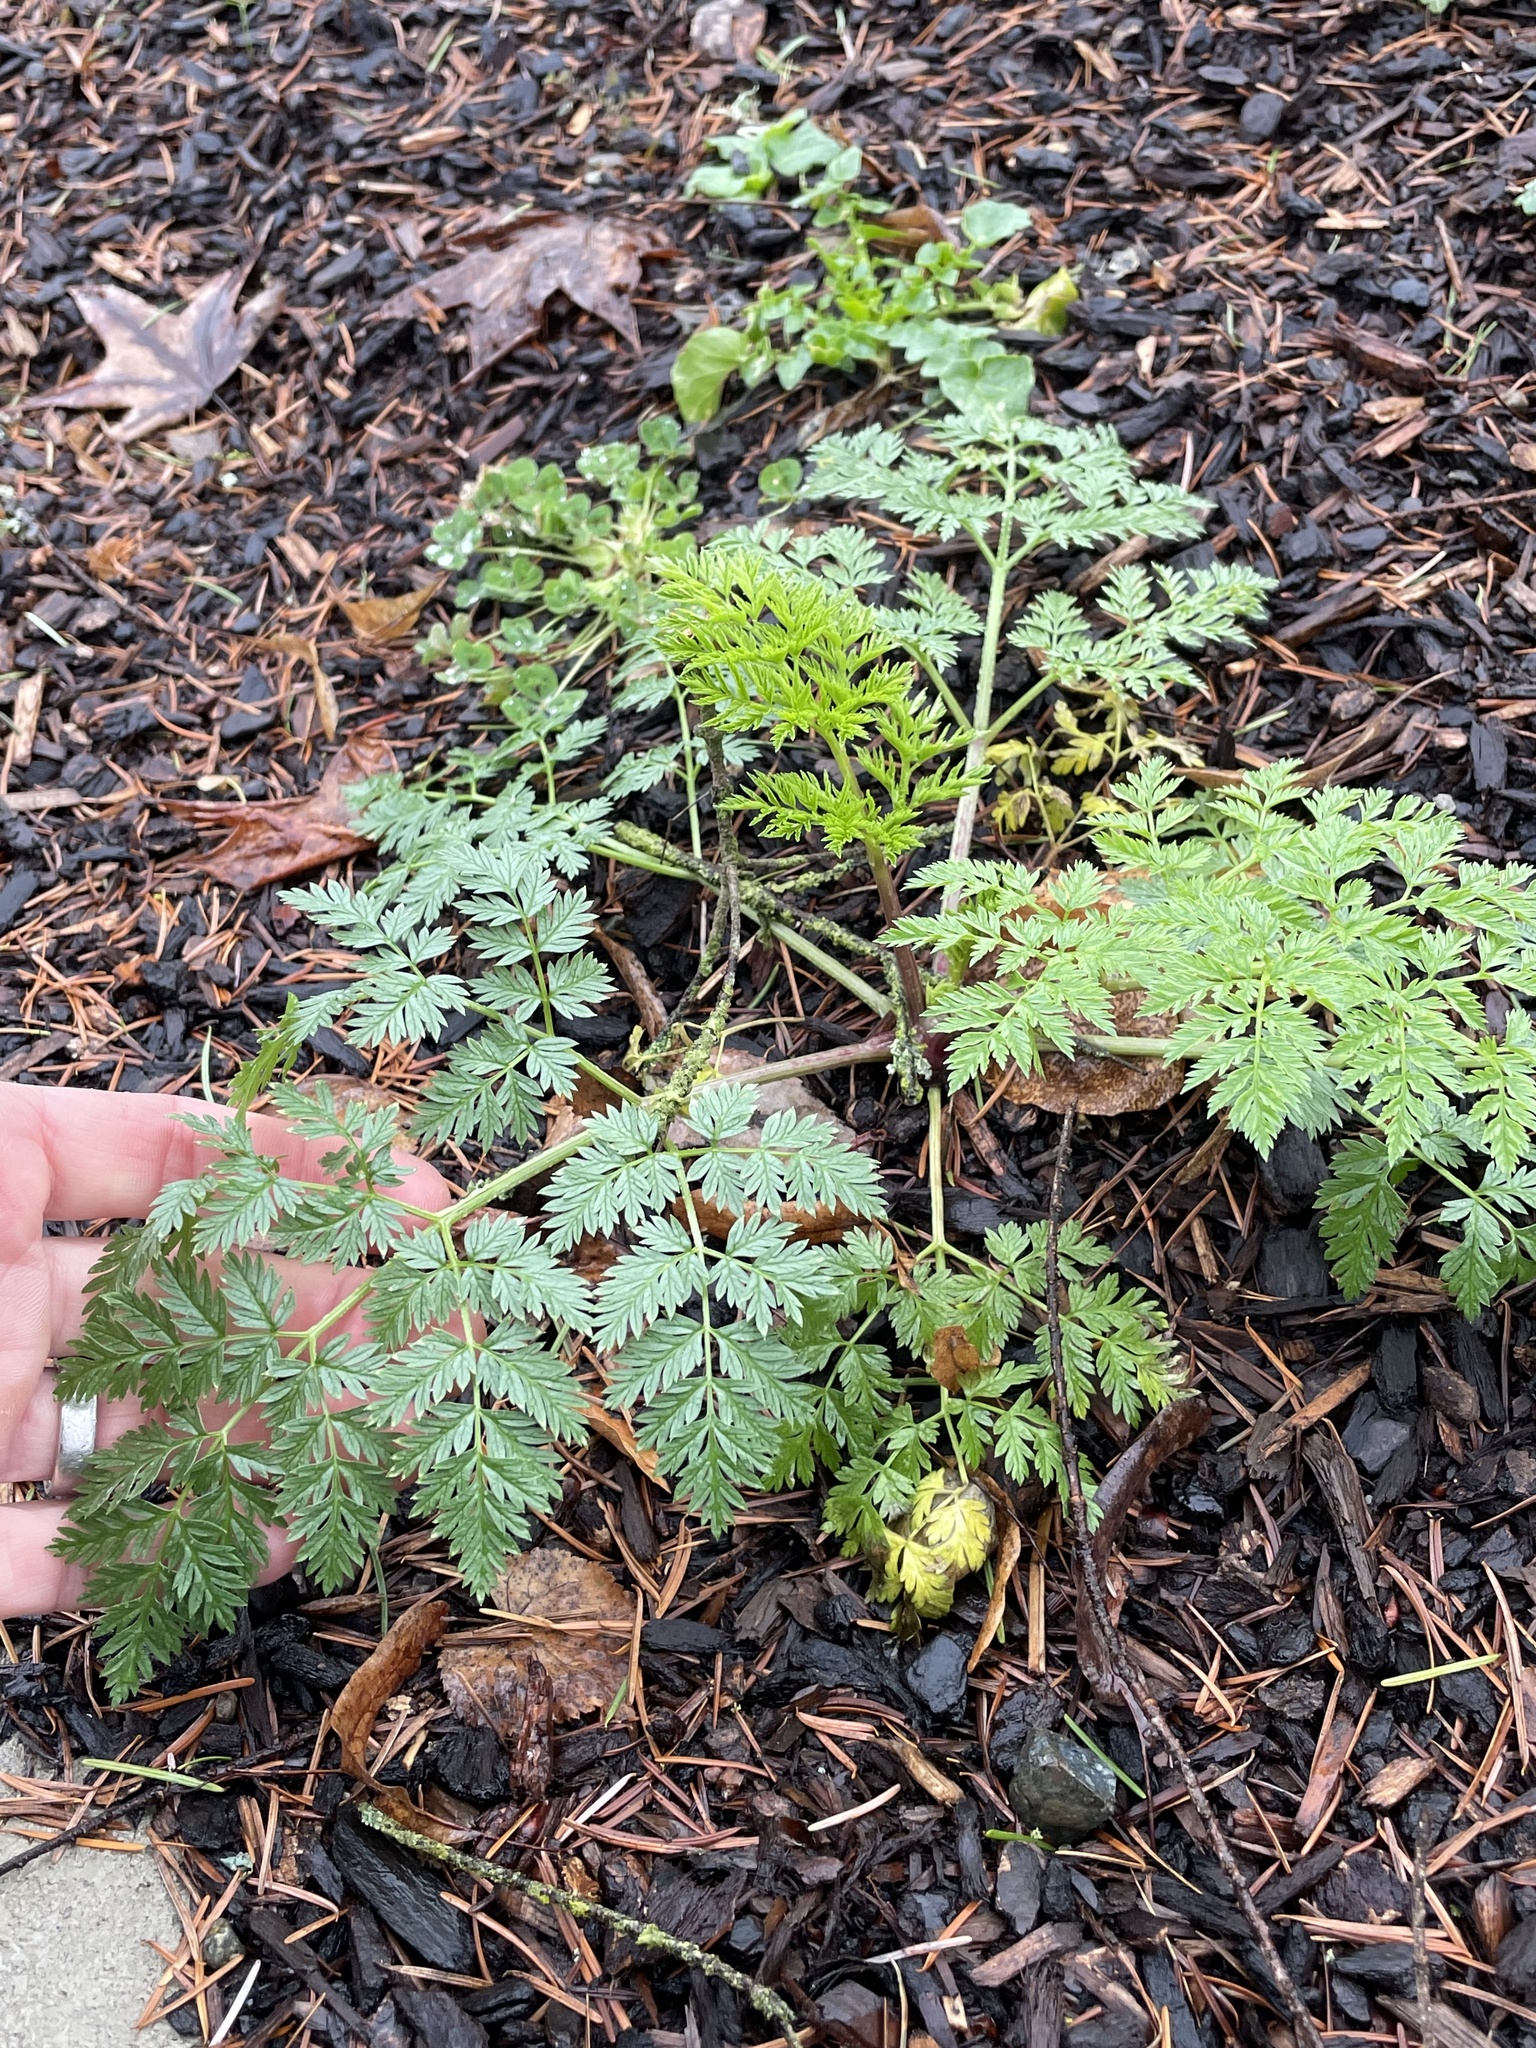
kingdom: Plantae
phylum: Tracheophyta
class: Magnoliopsida
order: Apiales
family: Apiaceae
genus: Conium
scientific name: Conium maculatum
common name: Hemlock
